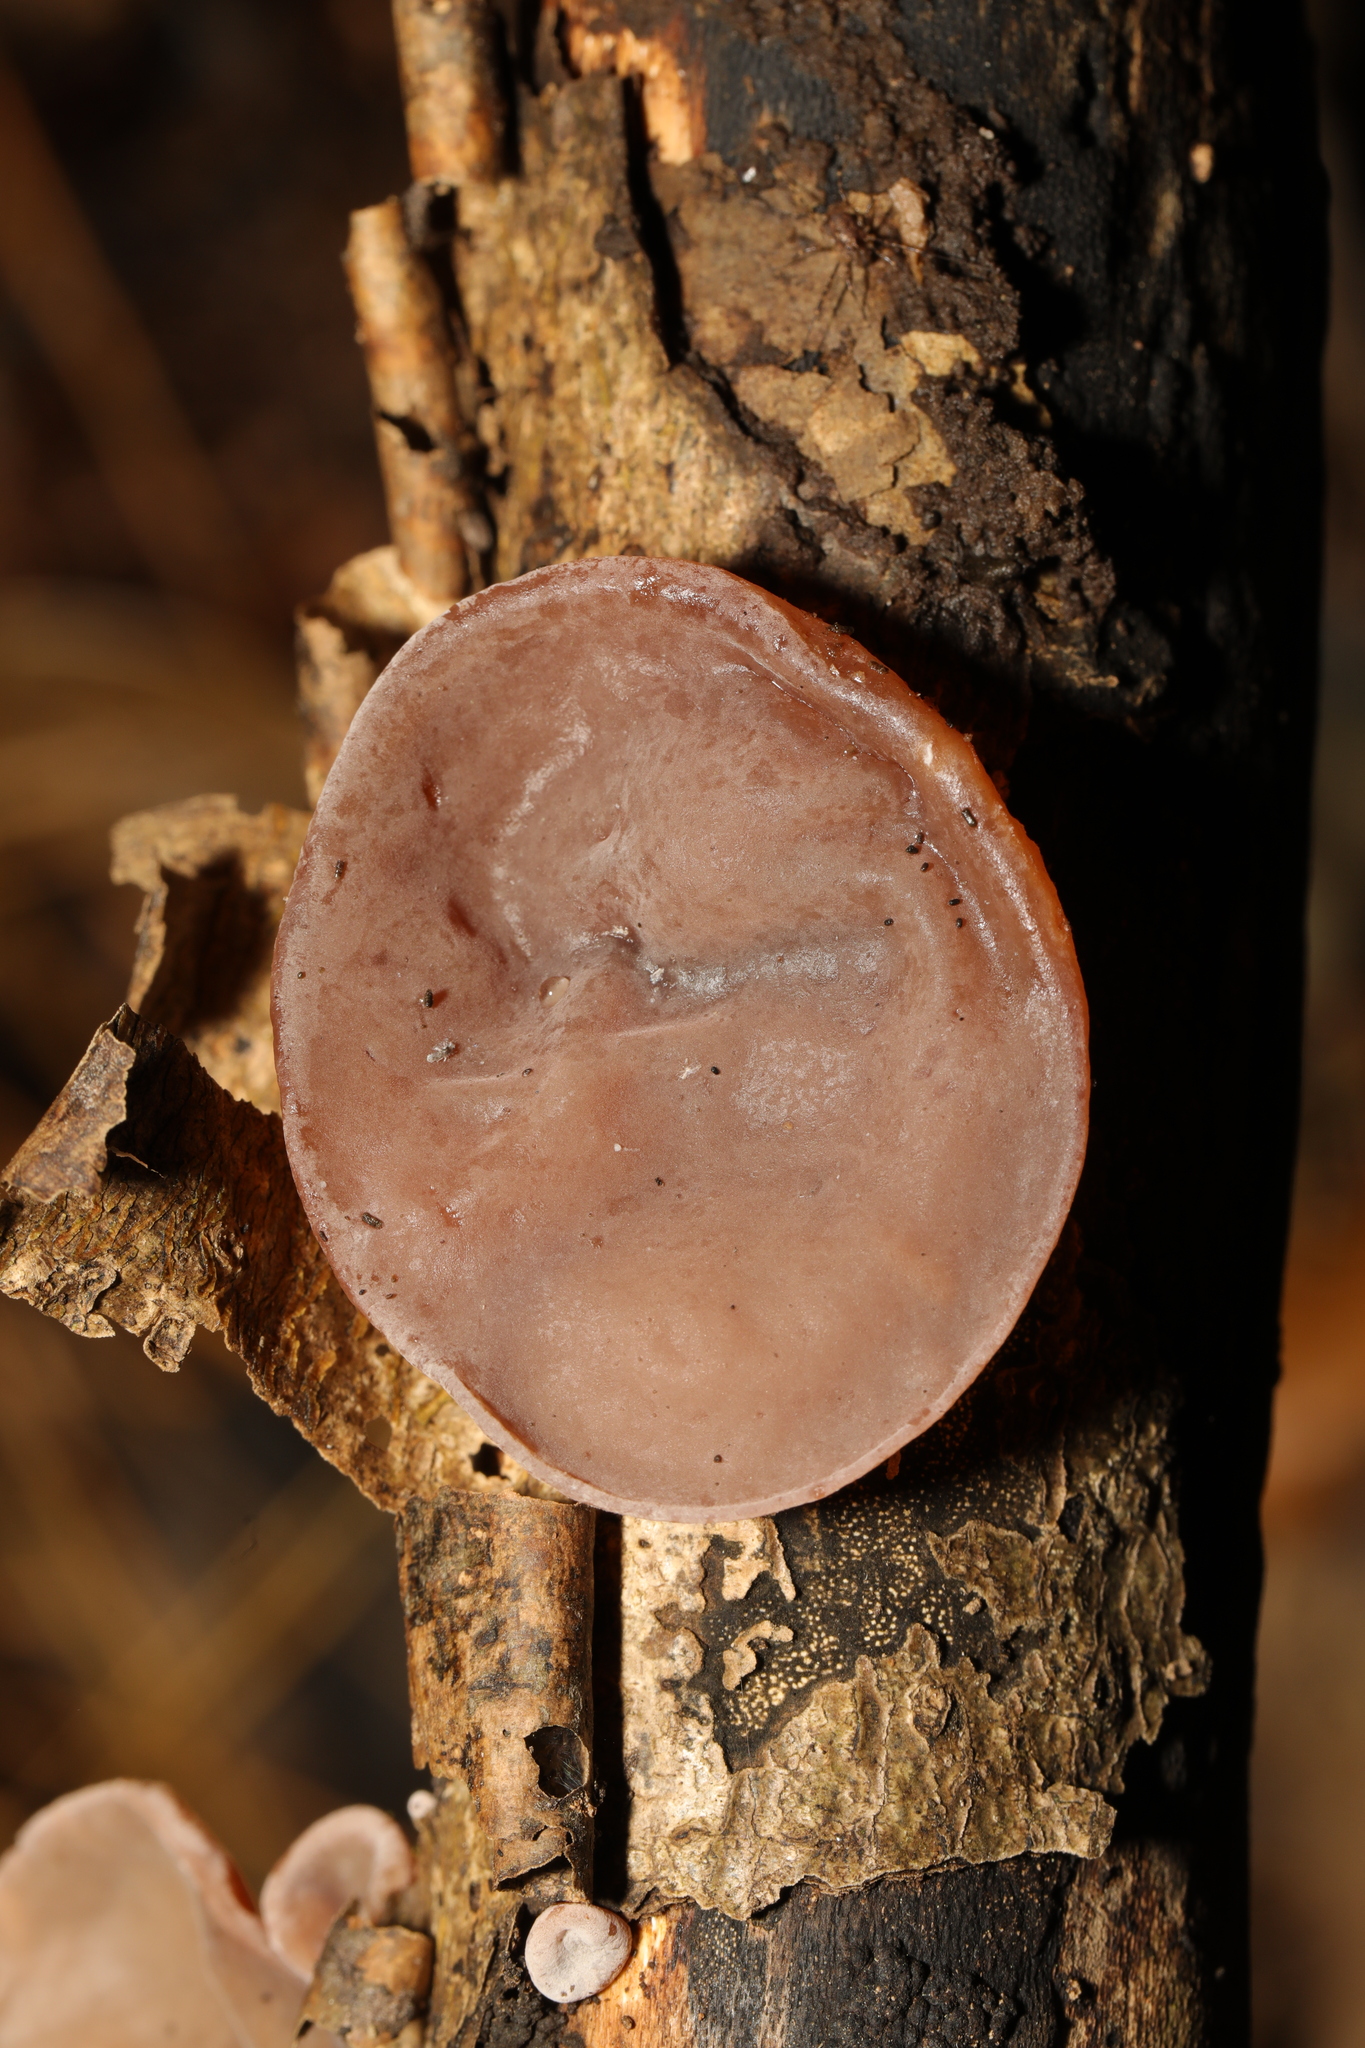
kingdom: Fungi
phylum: Basidiomycota
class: Agaricomycetes
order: Auriculariales
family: Auriculariaceae
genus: Auricularia
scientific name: Auricularia auricula-judae
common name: Jelly ear
